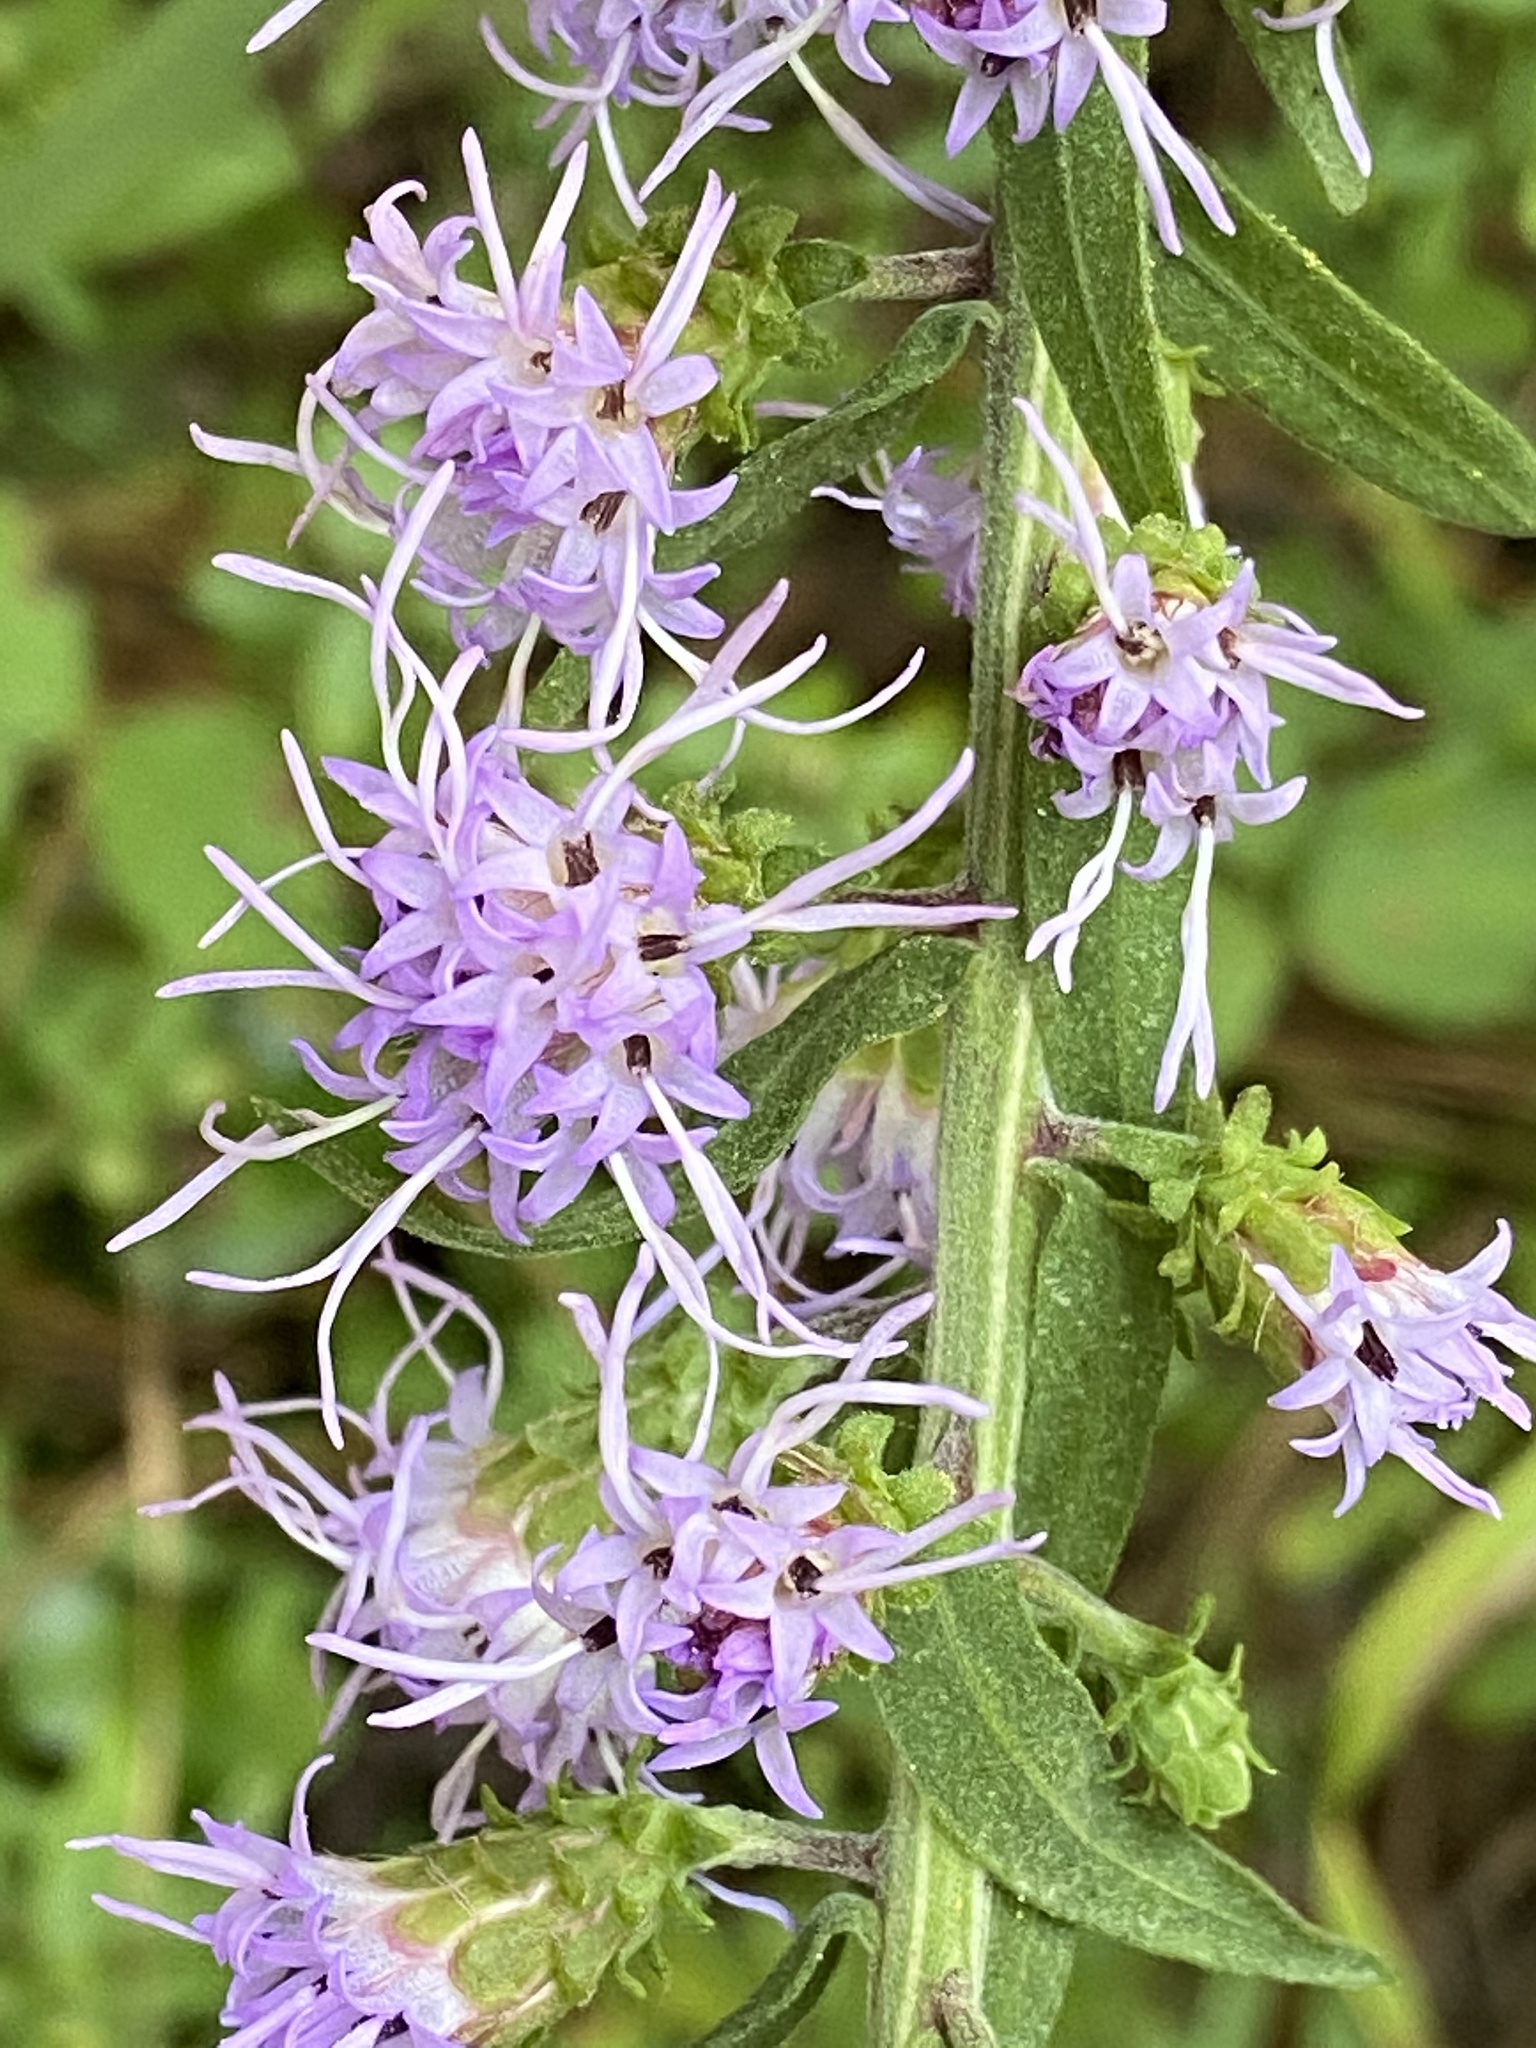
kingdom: Plantae
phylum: Tracheophyta
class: Magnoliopsida
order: Asterales
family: Asteraceae
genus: Liatris
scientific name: Liatris squarrulosa
